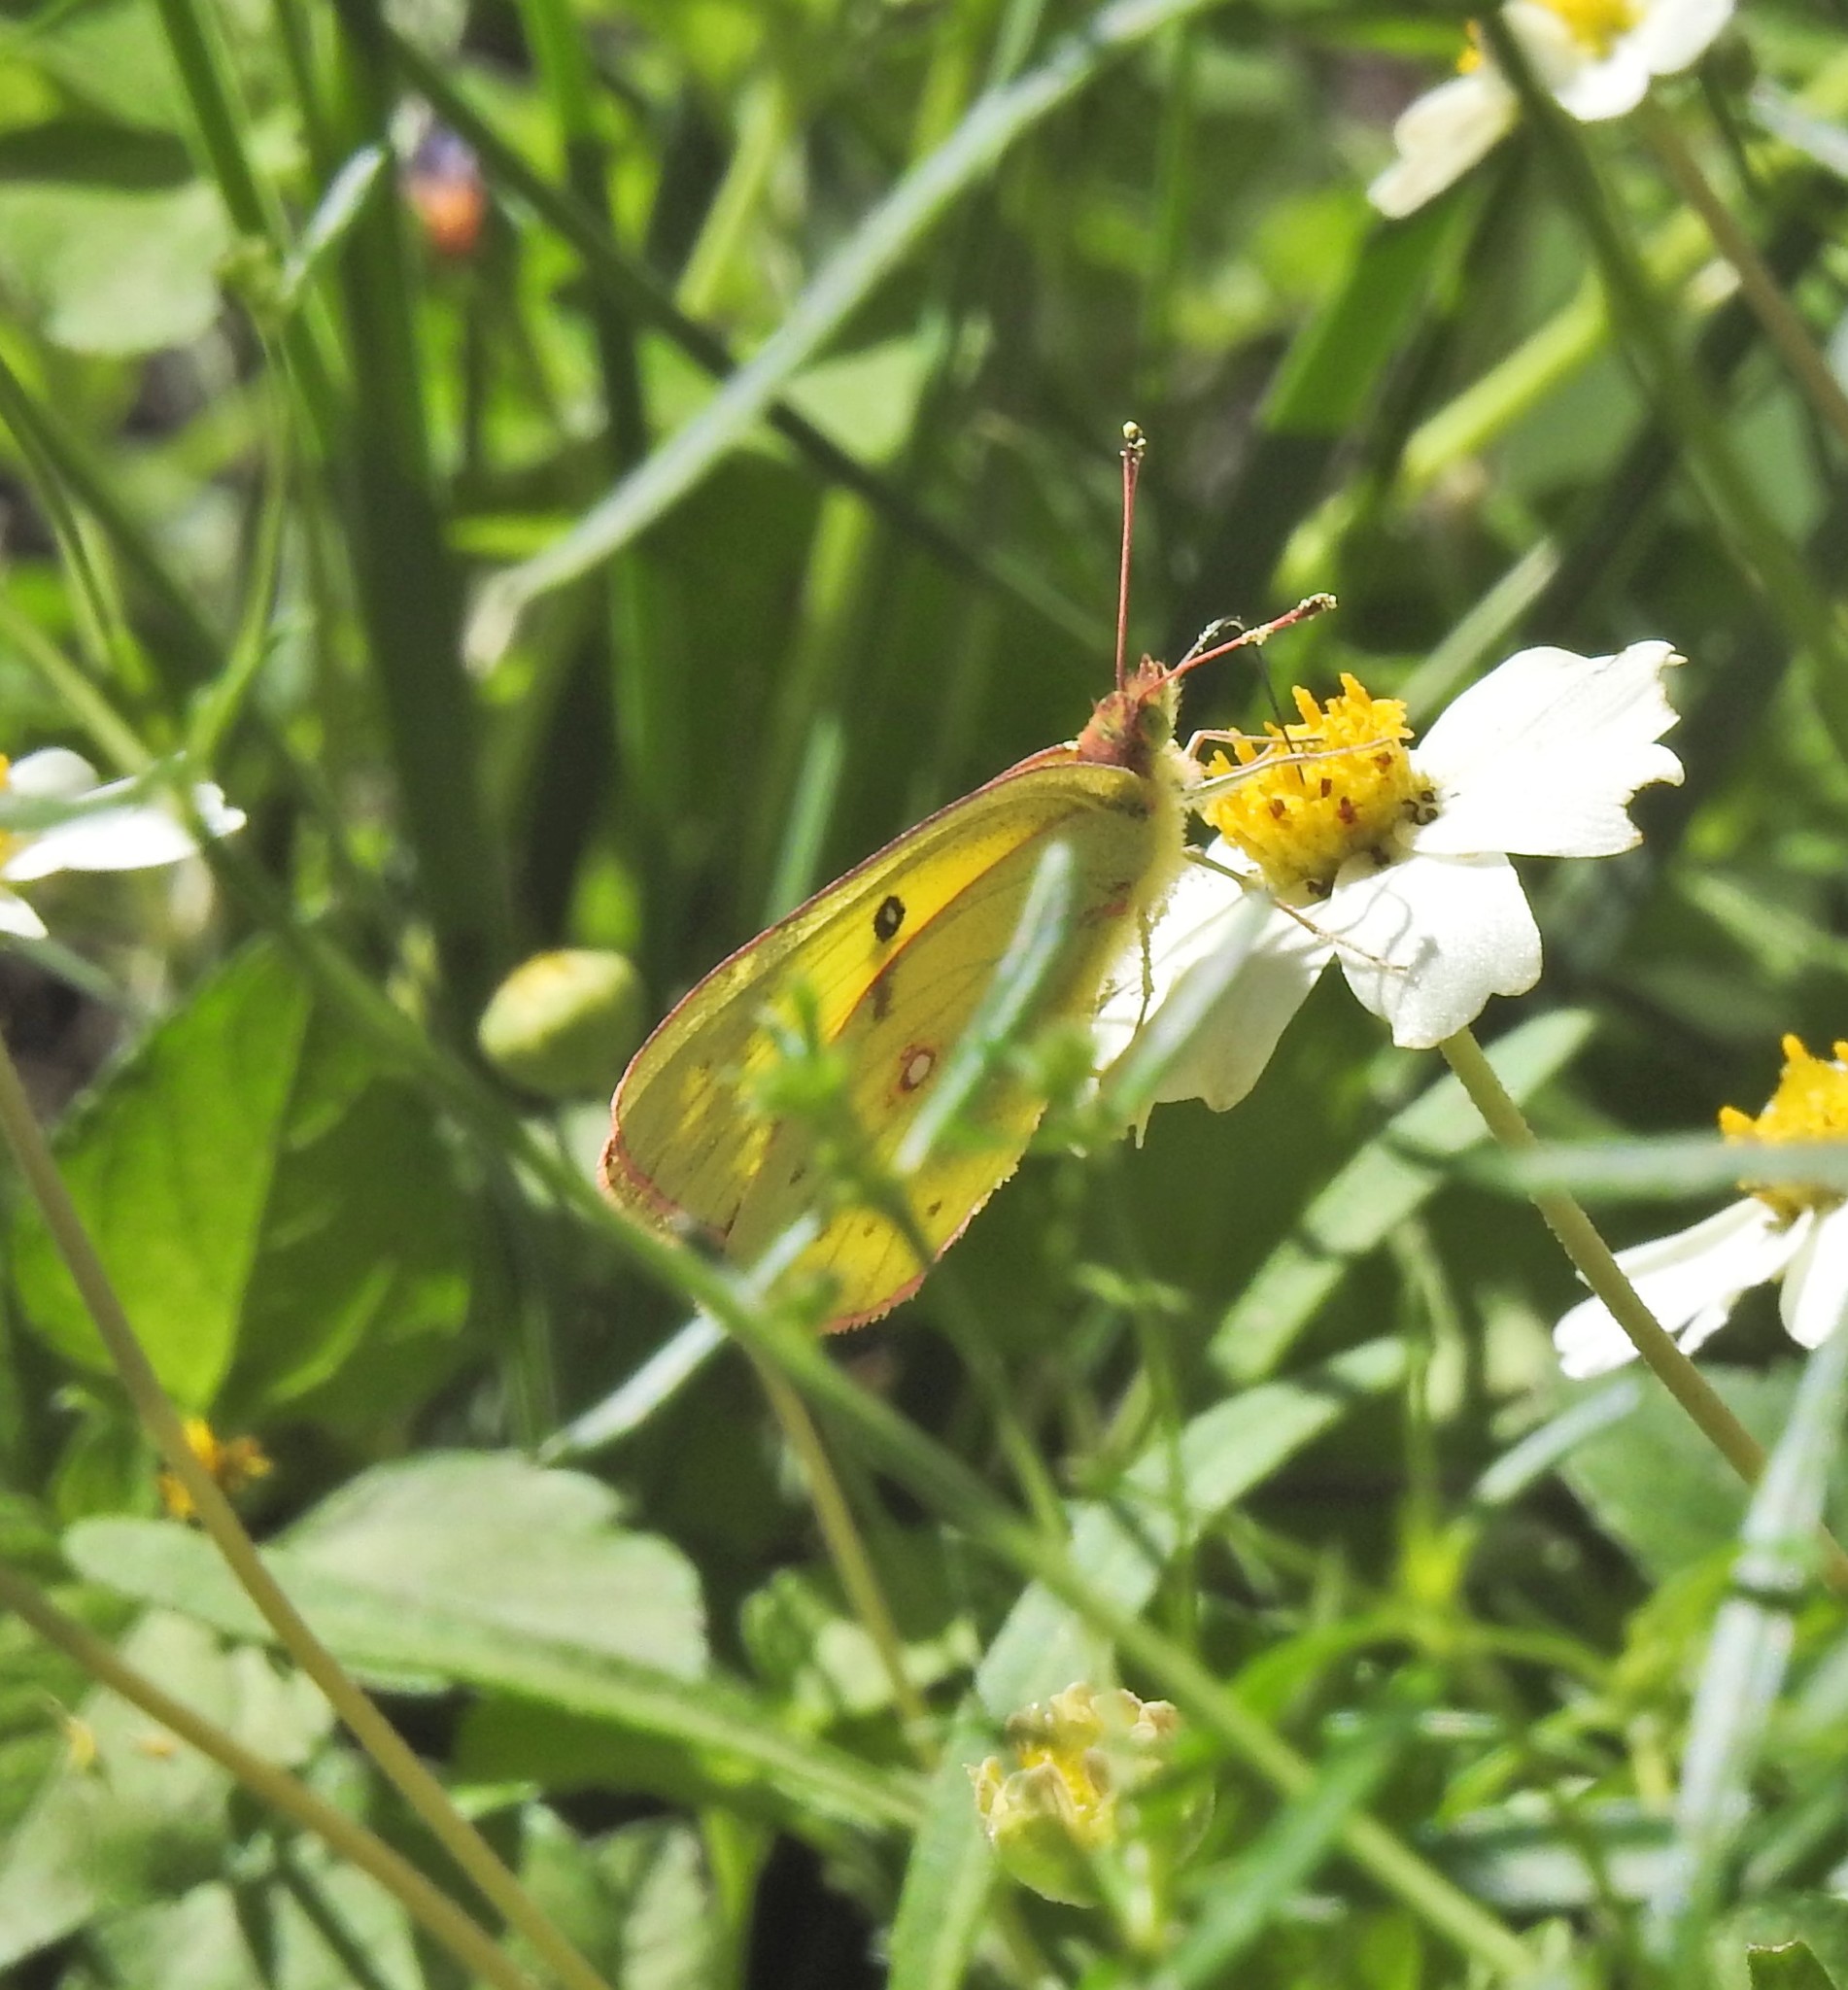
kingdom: Animalia
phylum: Arthropoda
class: Insecta
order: Lepidoptera
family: Pieridae
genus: Colias
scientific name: Colias eurytheme
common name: Alfalfa butterfly
